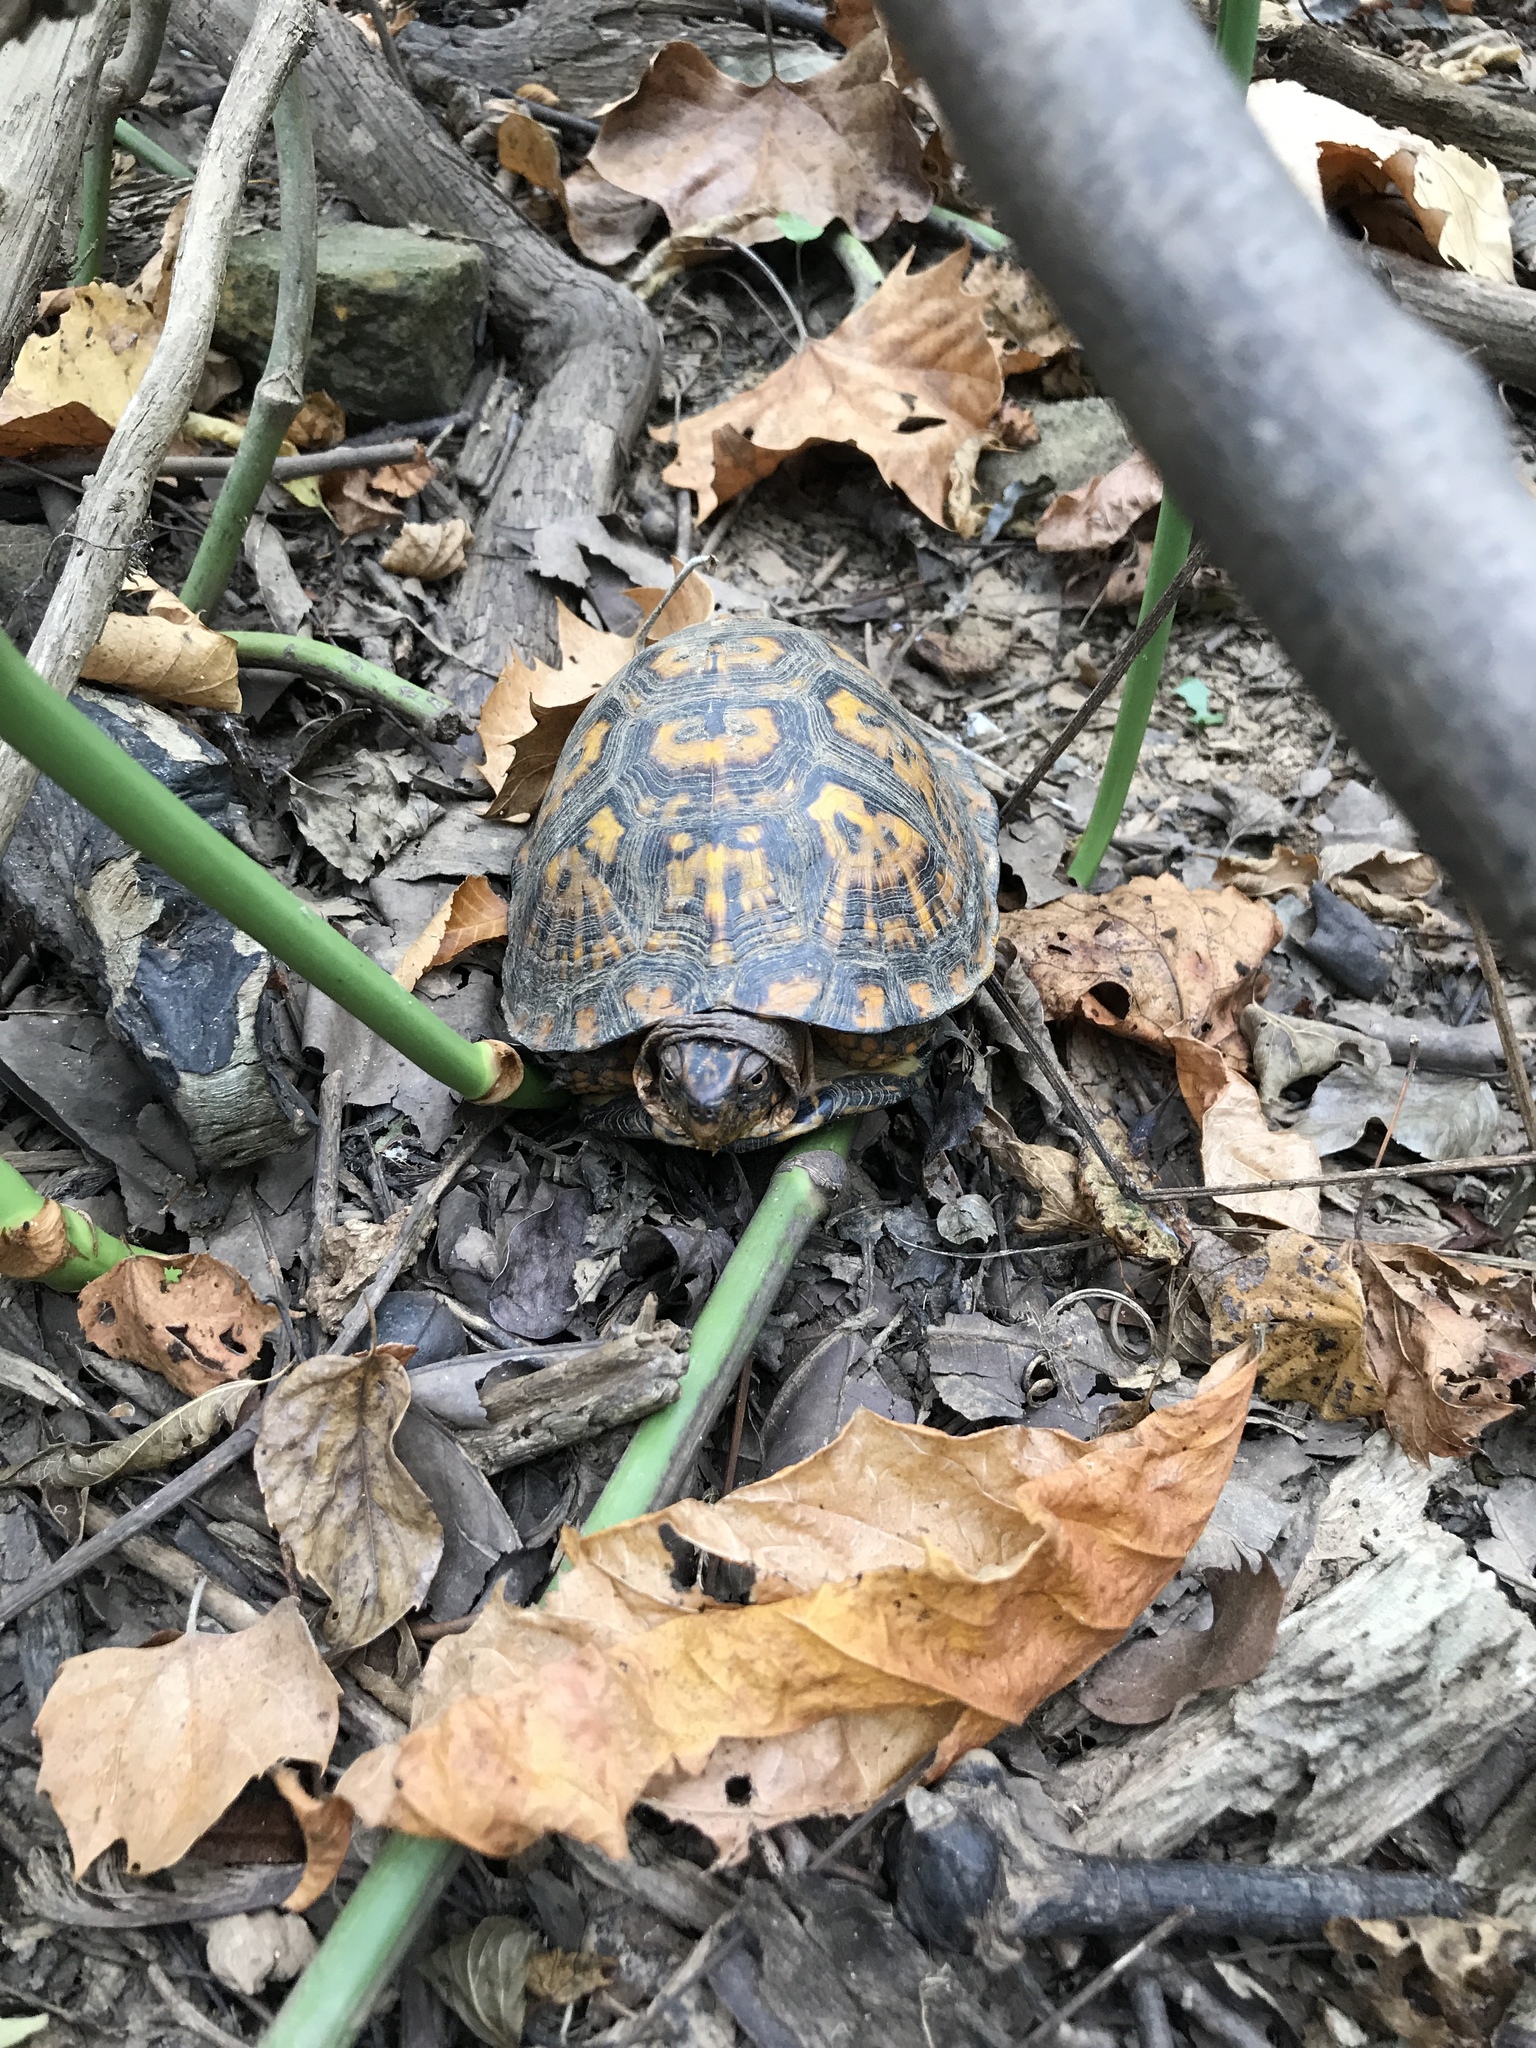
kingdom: Animalia
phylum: Chordata
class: Testudines
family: Emydidae
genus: Terrapene
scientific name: Terrapene carolina
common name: Common box turtle
